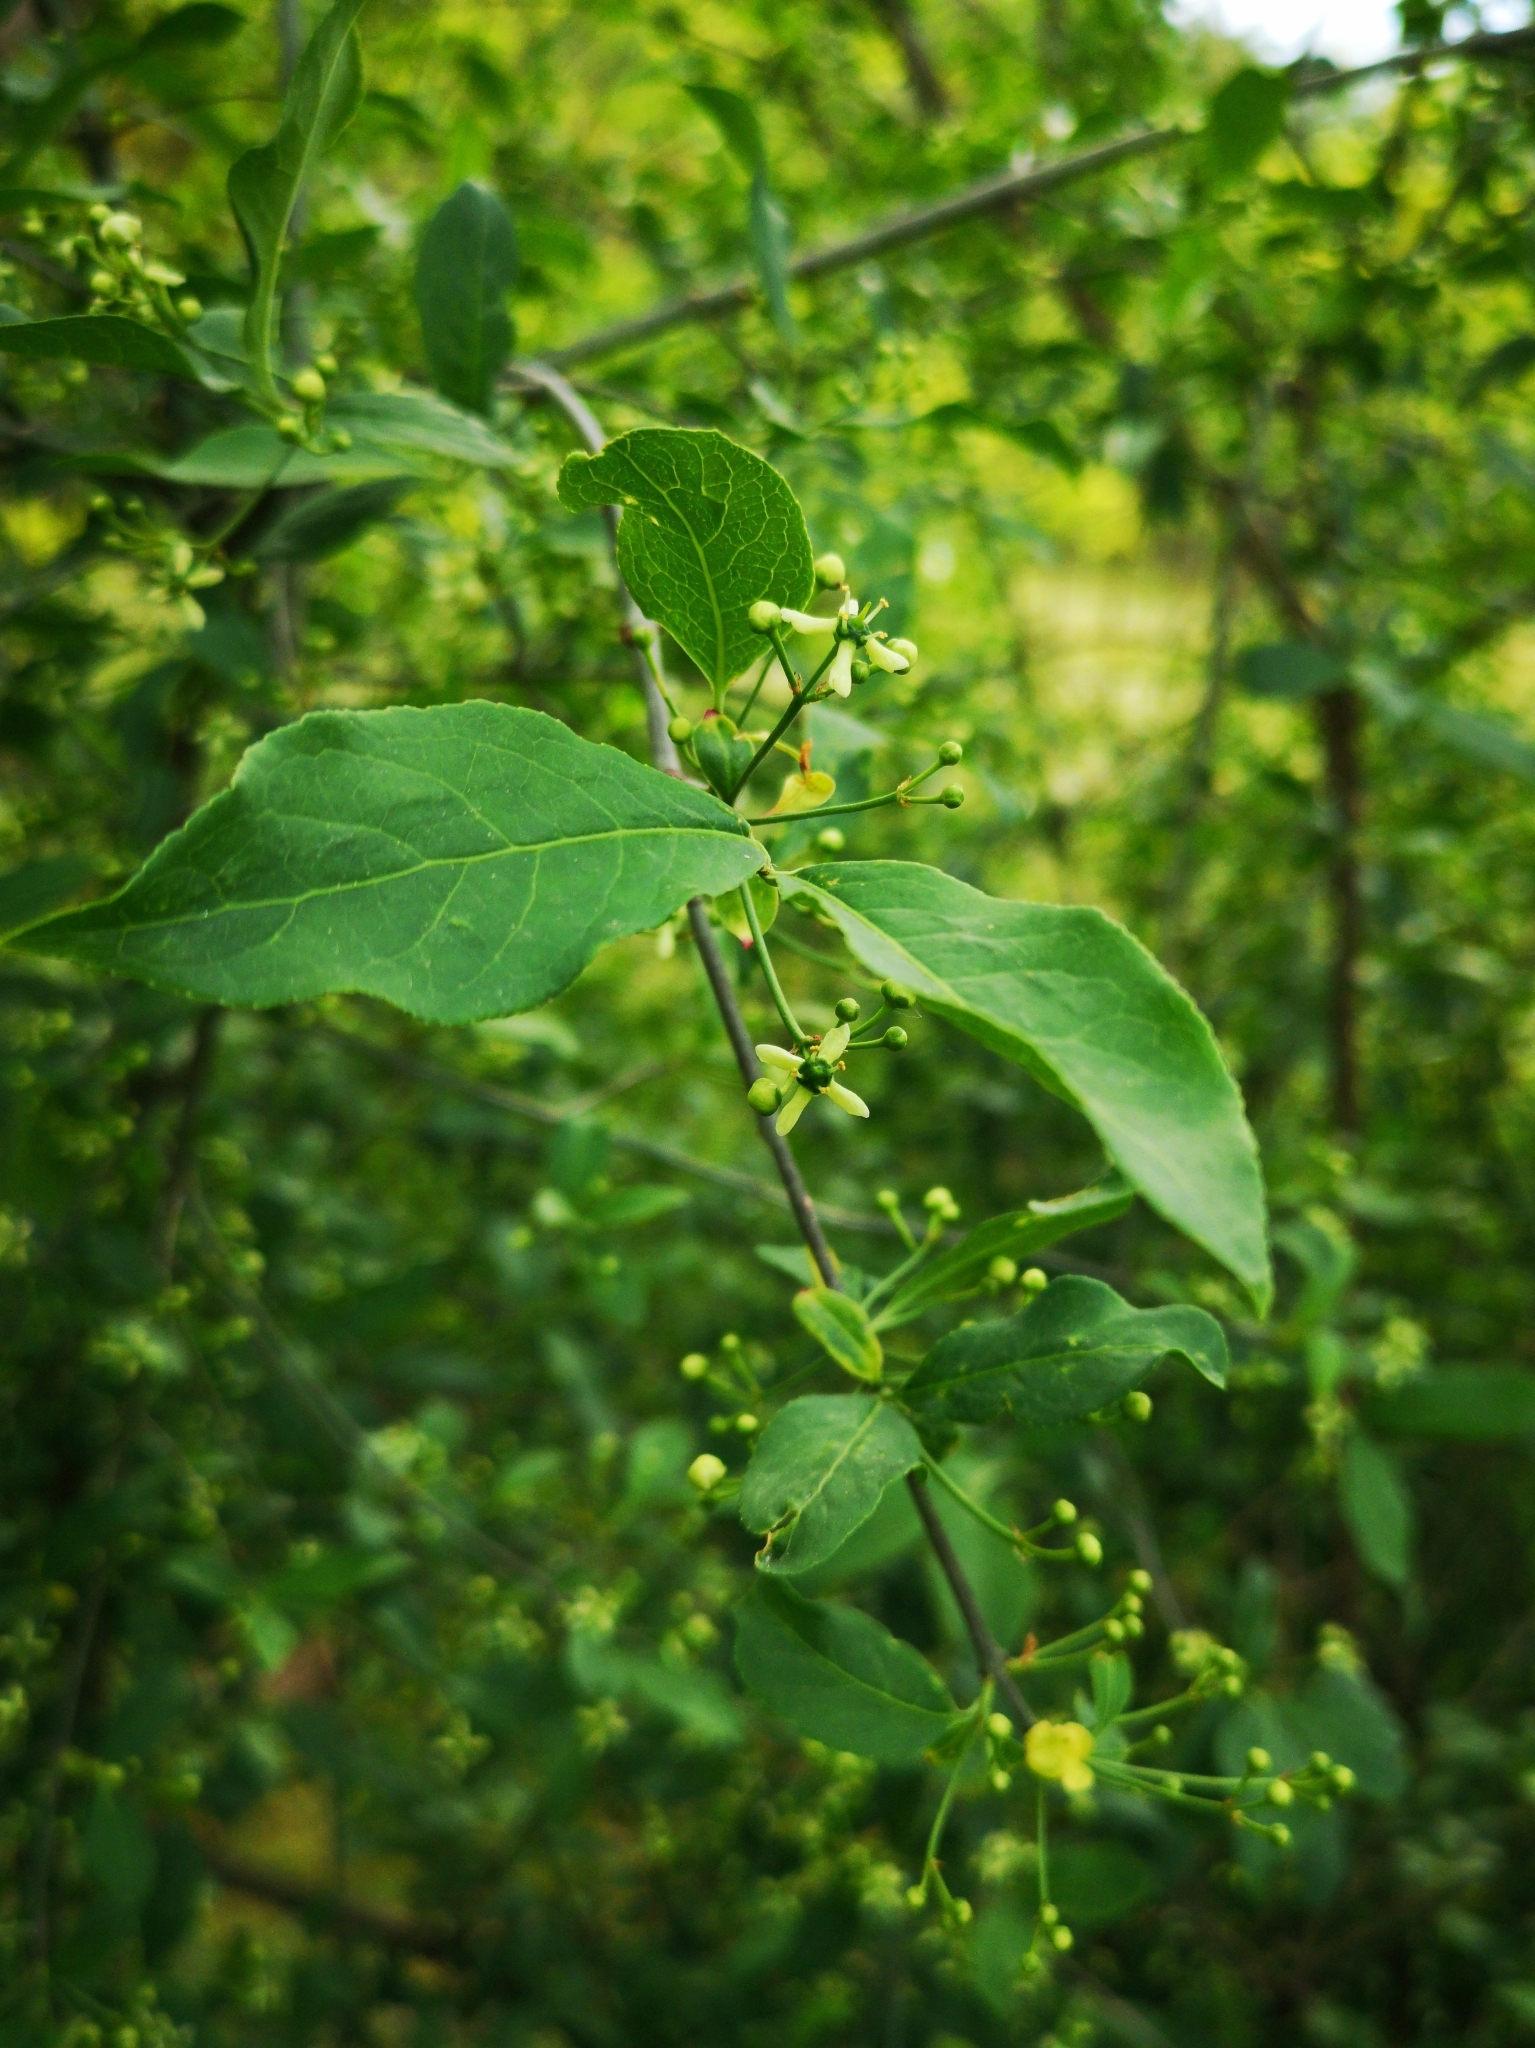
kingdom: Plantae
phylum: Tracheophyta
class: Magnoliopsida
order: Celastrales
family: Celastraceae
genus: Euonymus
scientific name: Euonymus europaeus
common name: Spindle
